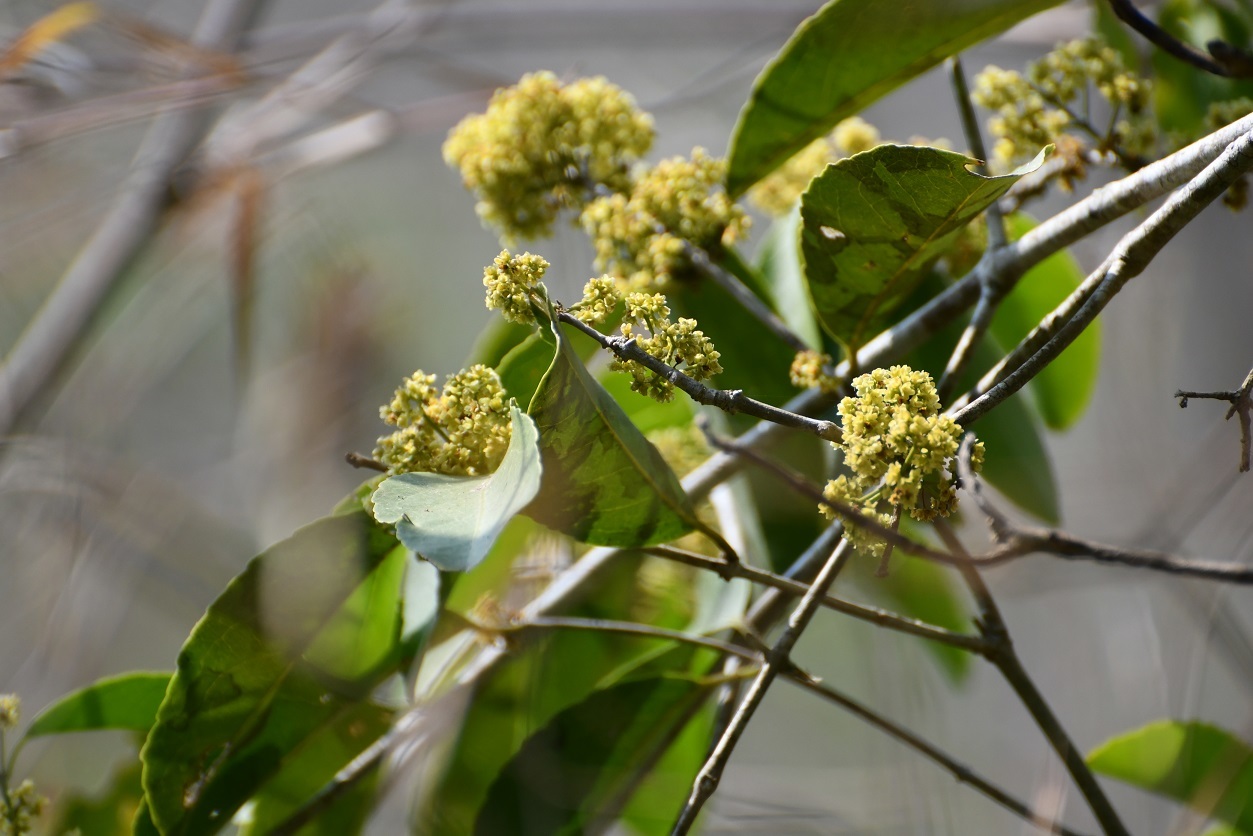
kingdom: Plantae
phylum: Tracheophyta
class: Magnoliopsida
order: Celastrales
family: Celastraceae
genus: Monteverdia
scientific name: Monteverdia stipitata
